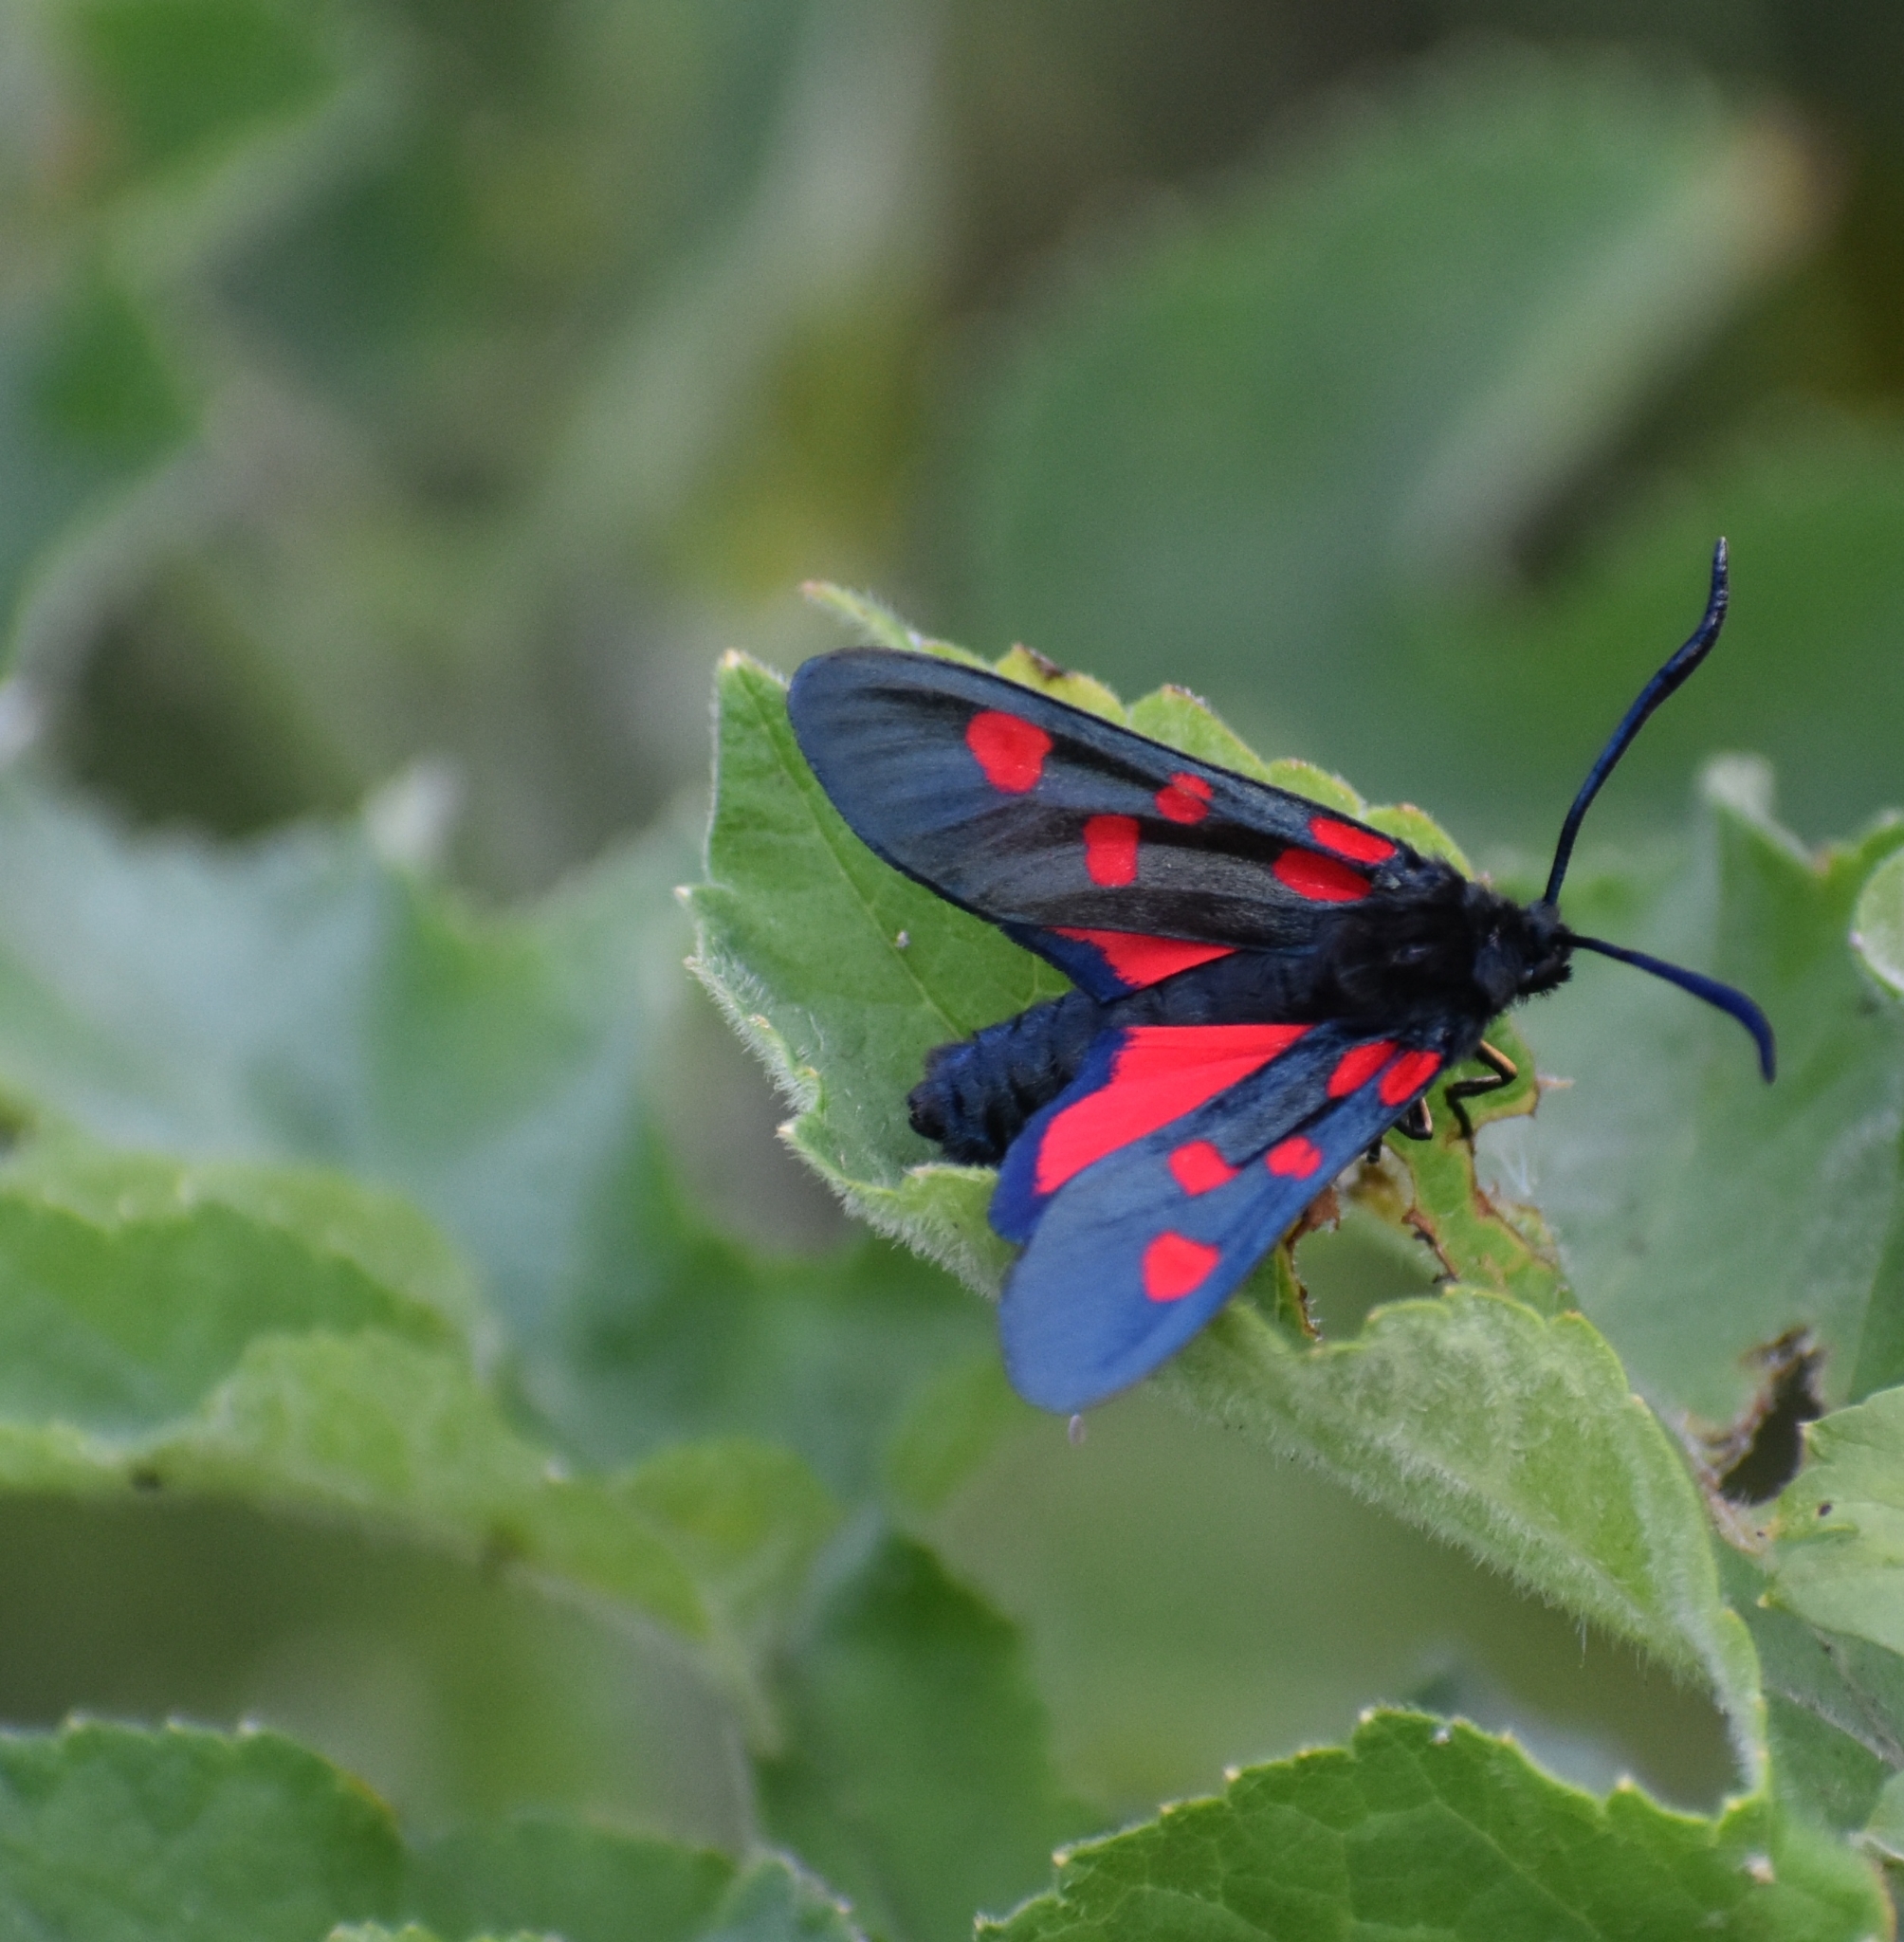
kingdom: Animalia
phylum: Arthropoda
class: Insecta
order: Lepidoptera
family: Zygaenidae
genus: Zygaena
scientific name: Zygaena lonicerae
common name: Narrow-bordered five-spot burnet
